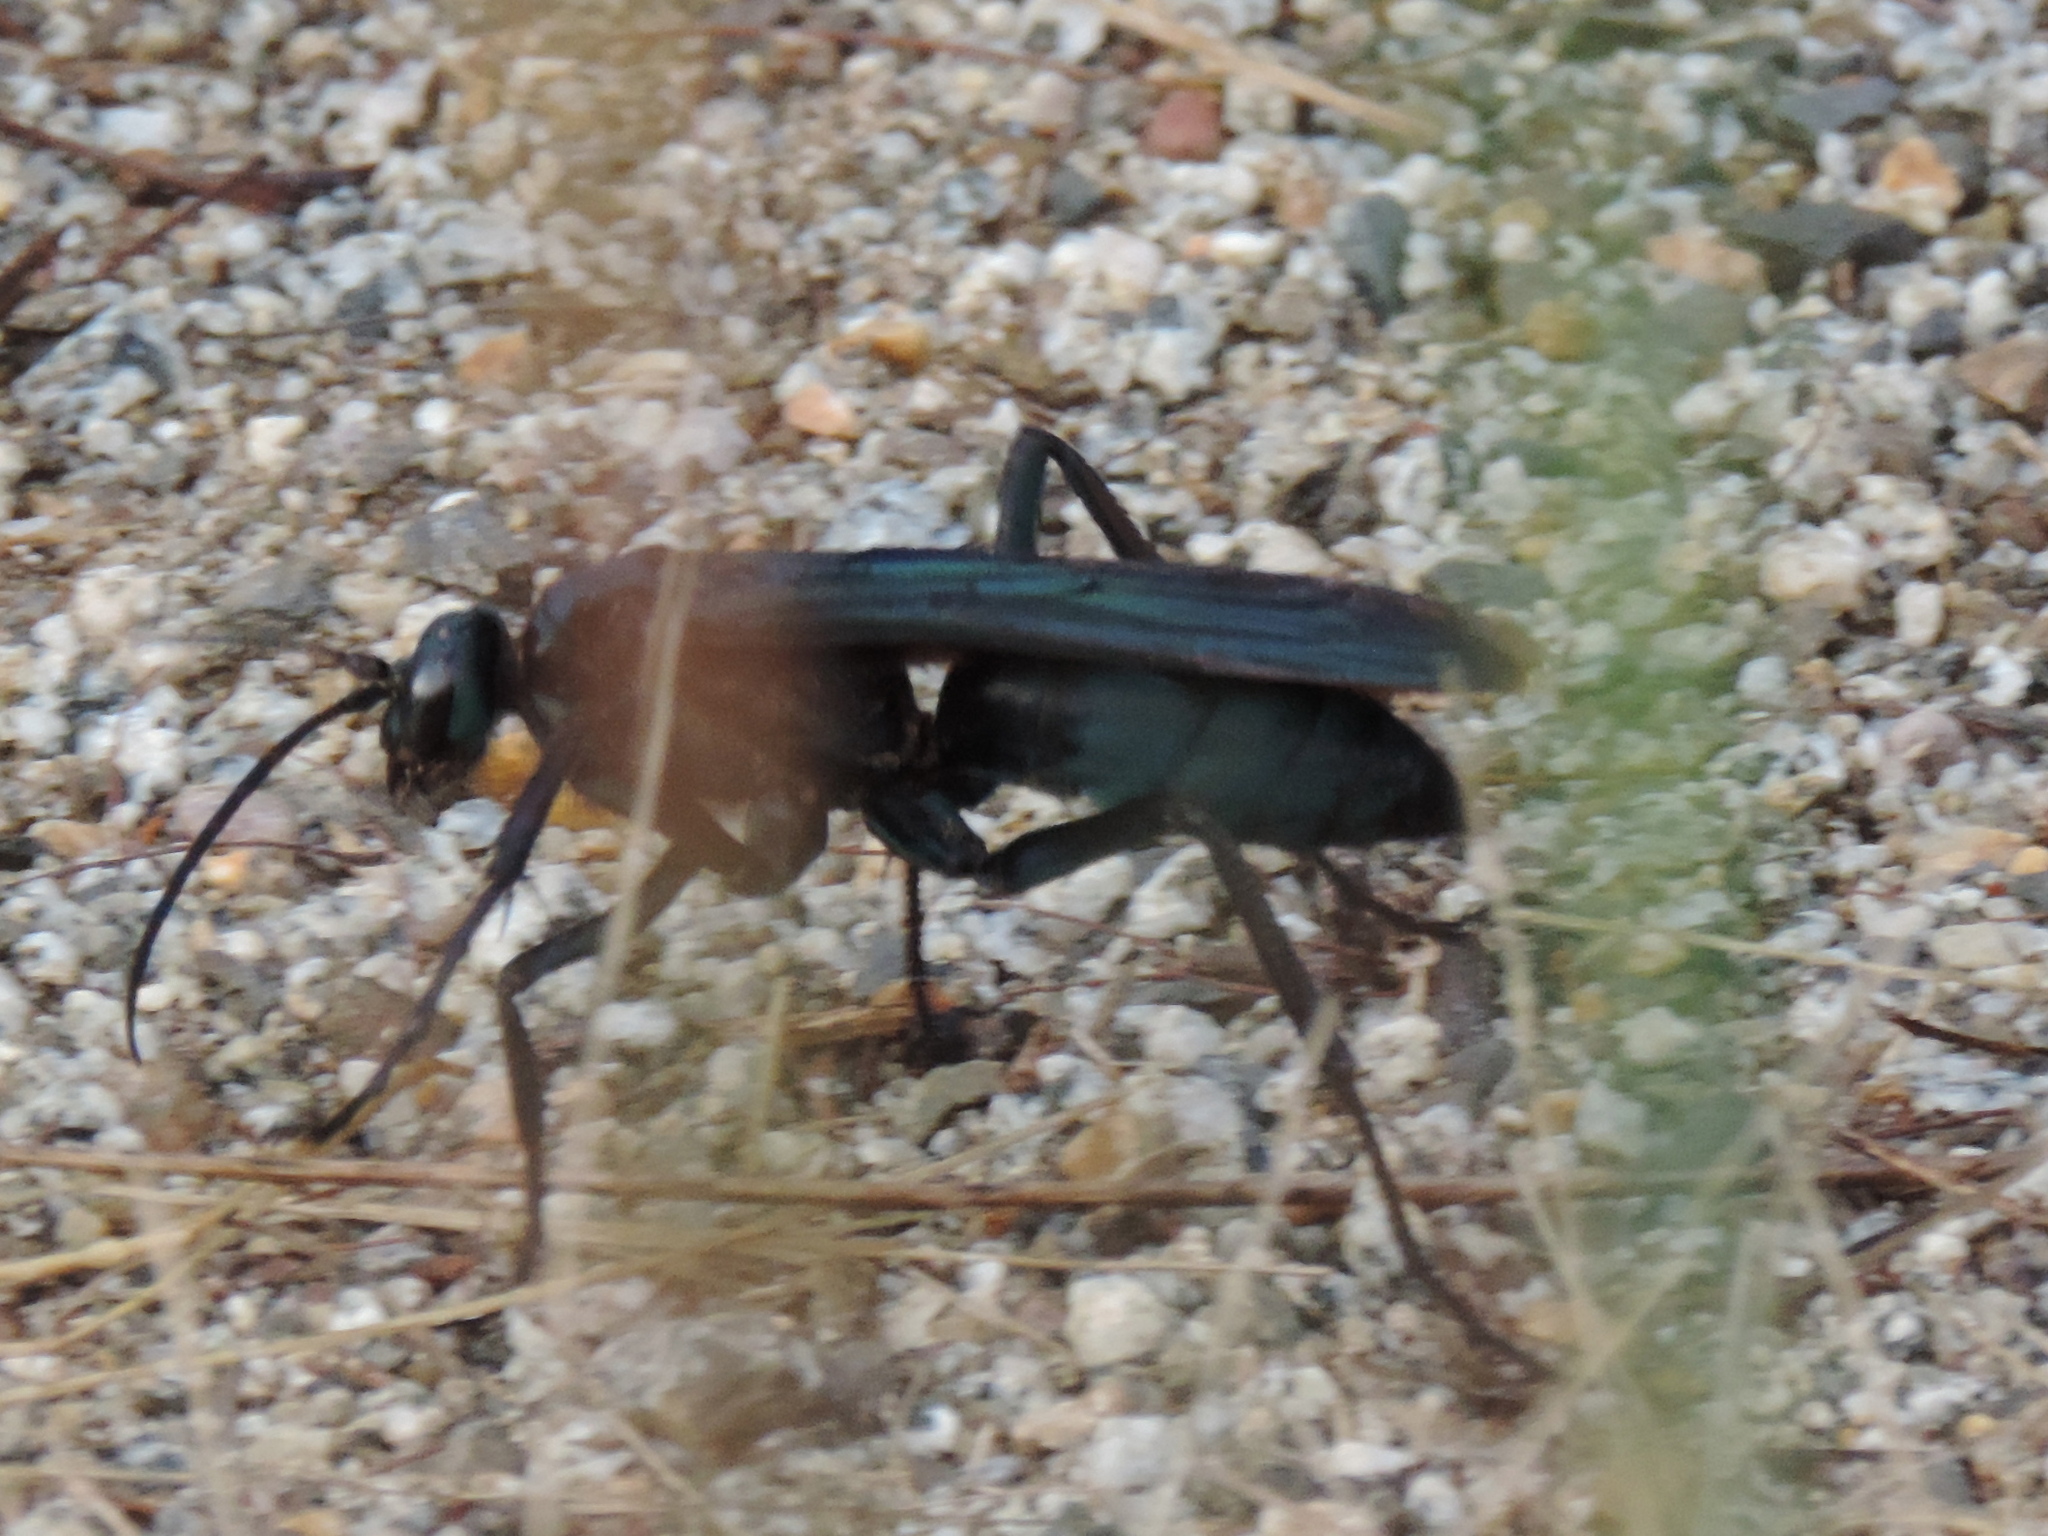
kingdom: Animalia
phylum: Arthropoda
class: Insecta
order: Hymenoptera
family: Pompilidae
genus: Pepsis
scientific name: Pepsis mexicana
